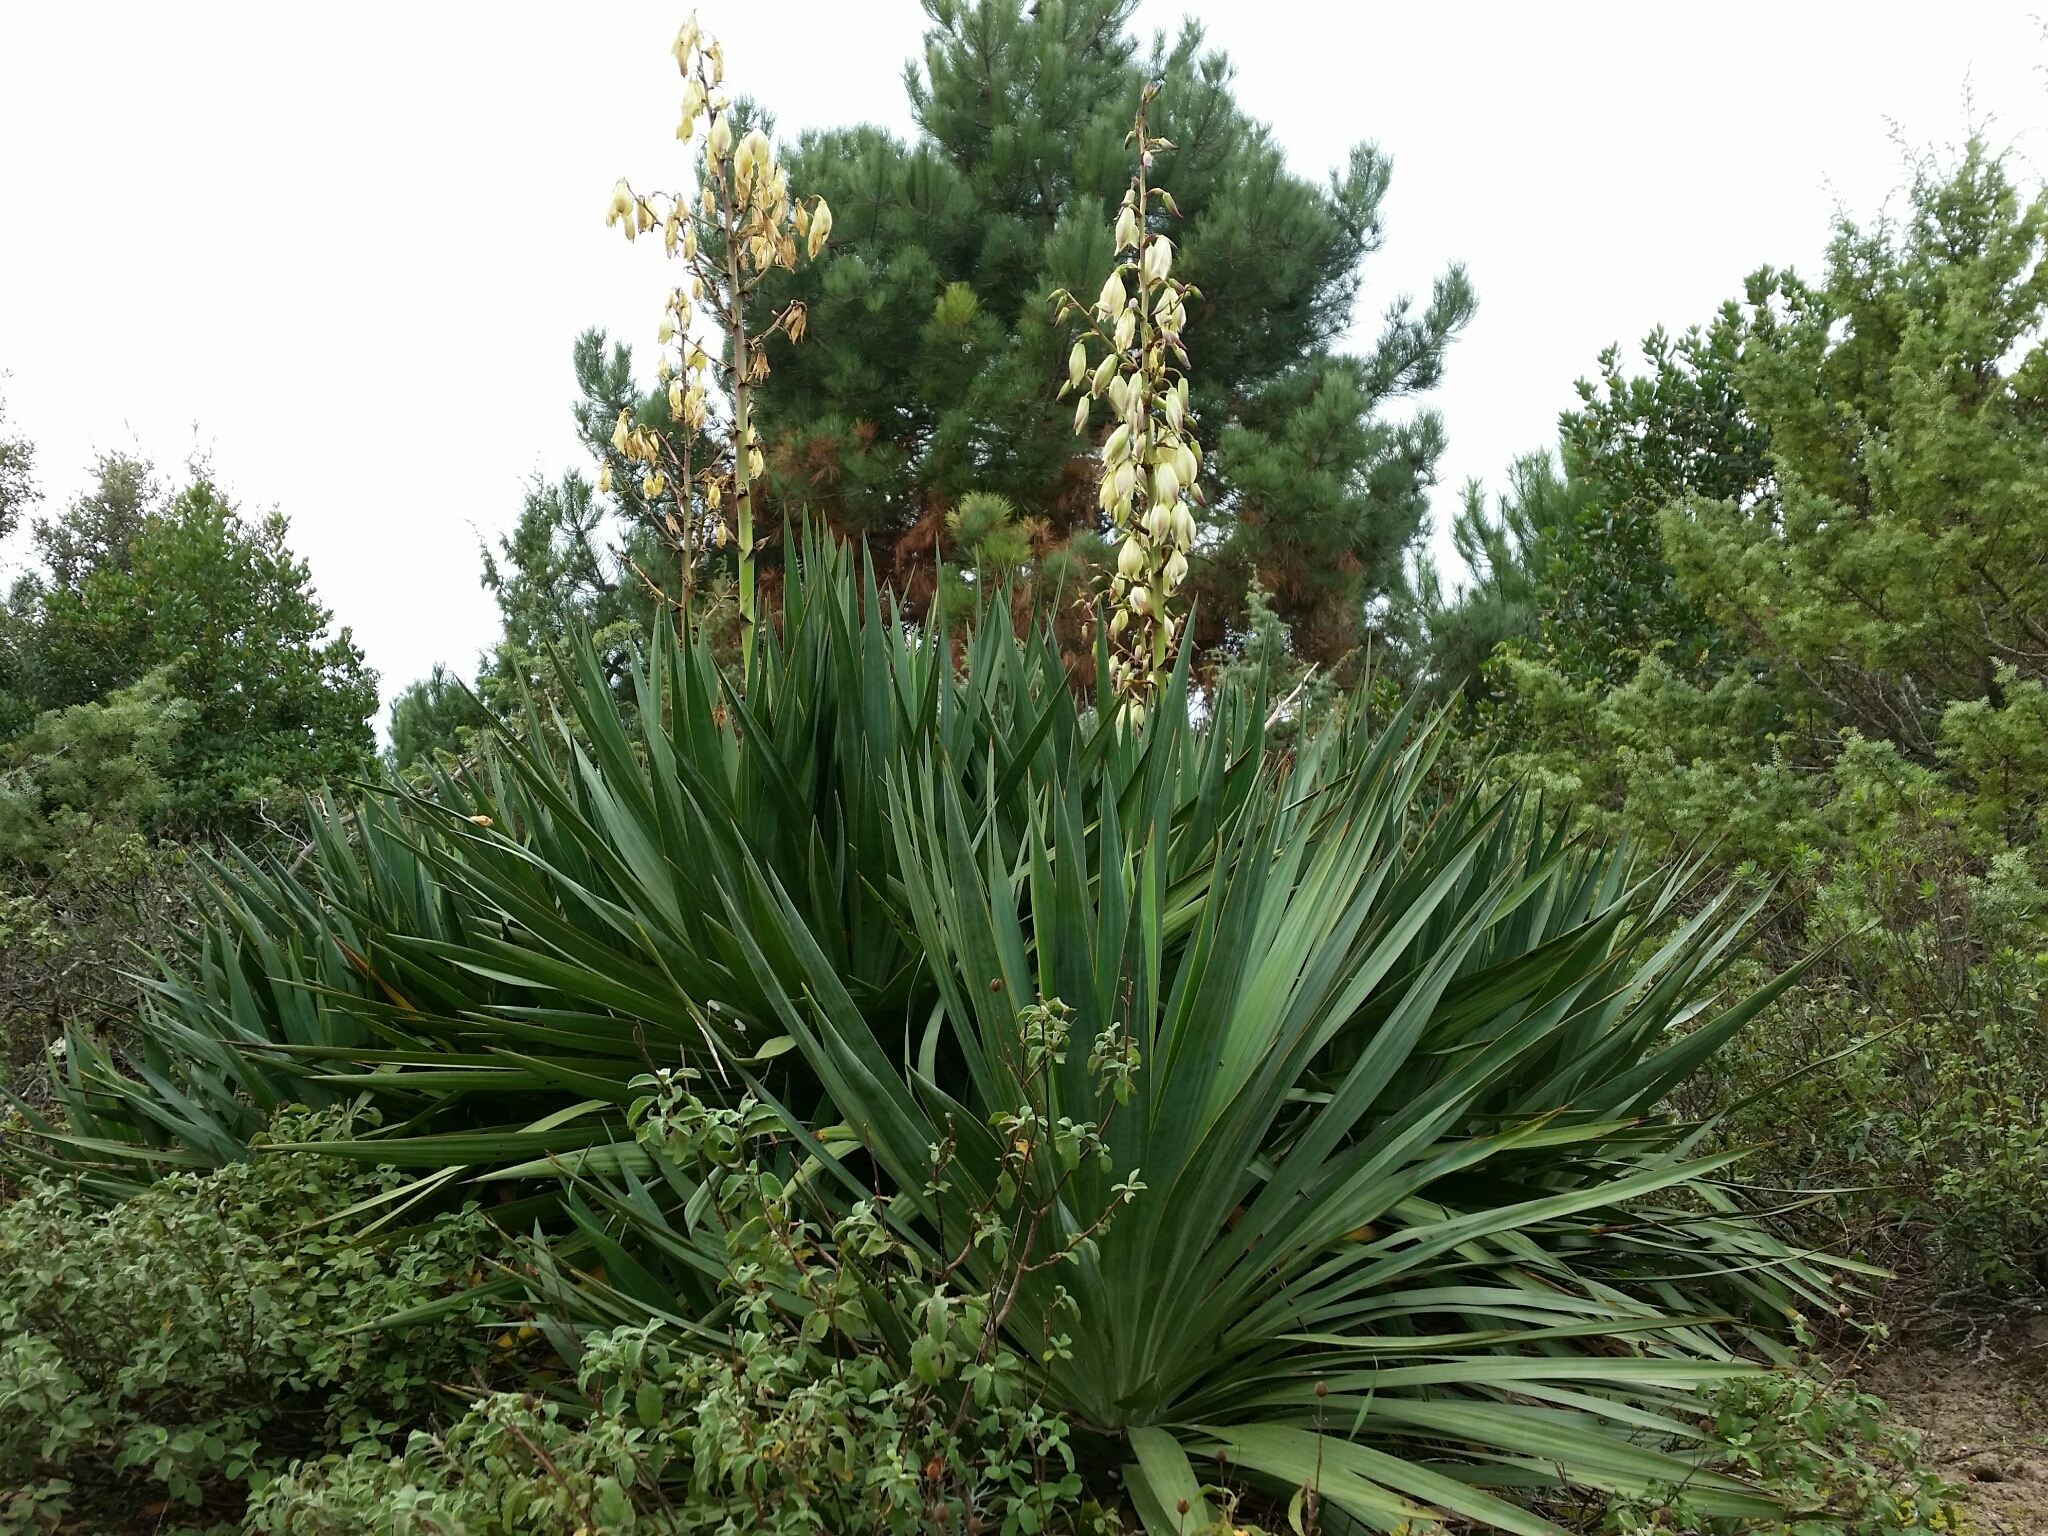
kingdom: Plantae
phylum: Tracheophyta
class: Liliopsida
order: Asparagales
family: Asparagaceae
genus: Yucca
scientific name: Yucca gloriosa
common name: Spanish-dagger
